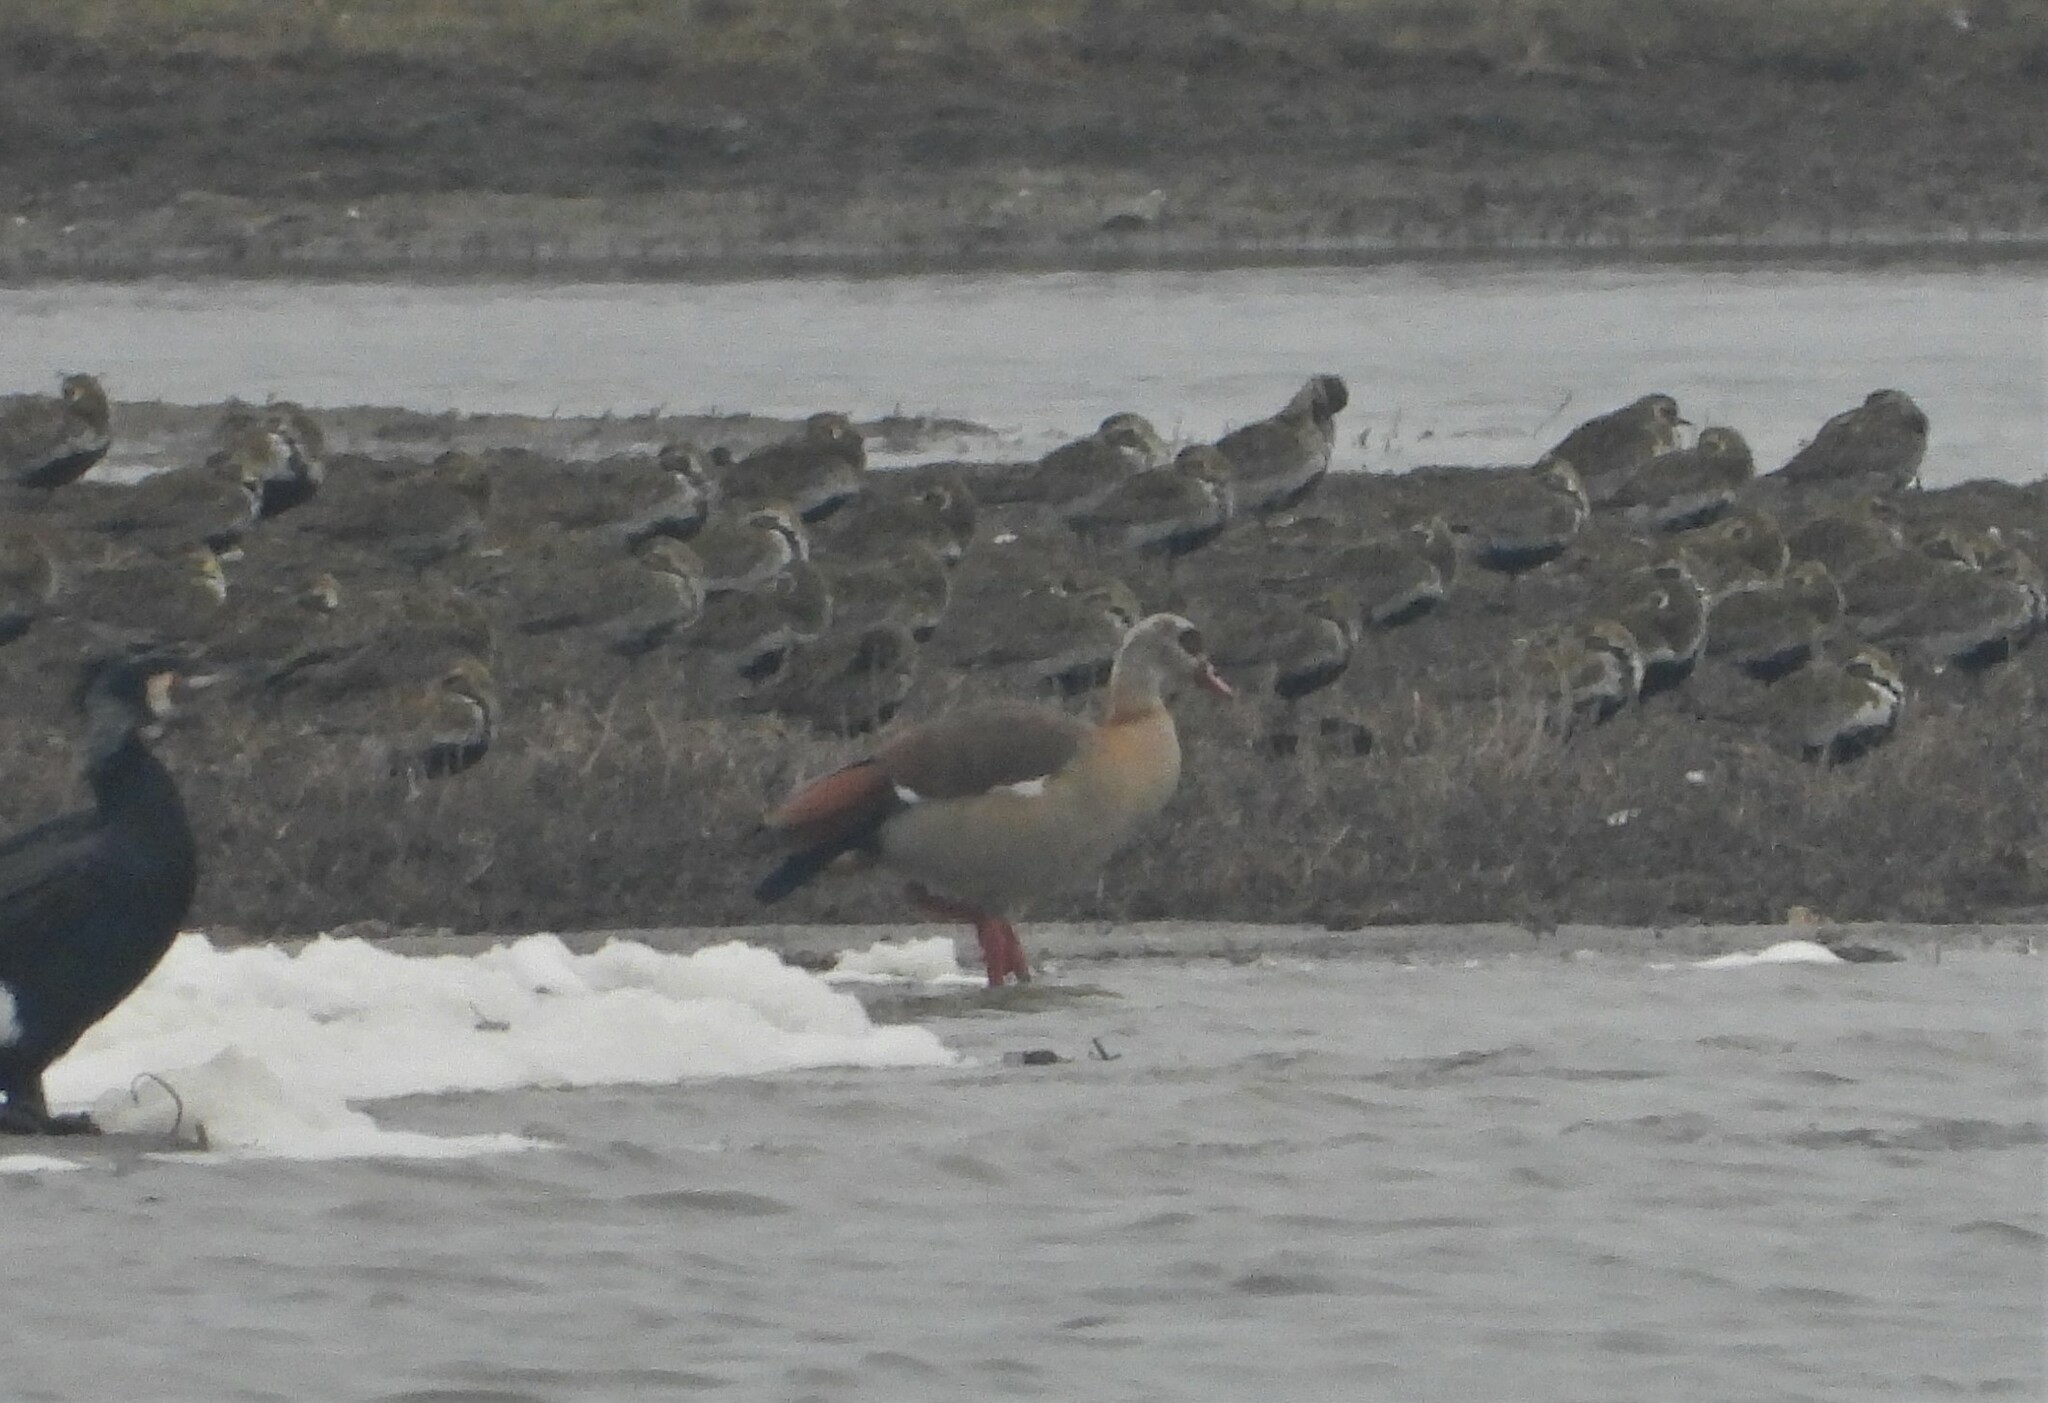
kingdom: Animalia
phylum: Chordata
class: Aves
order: Anseriformes
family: Anatidae
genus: Alopochen
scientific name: Alopochen aegyptiaca
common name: Egyptian goose
